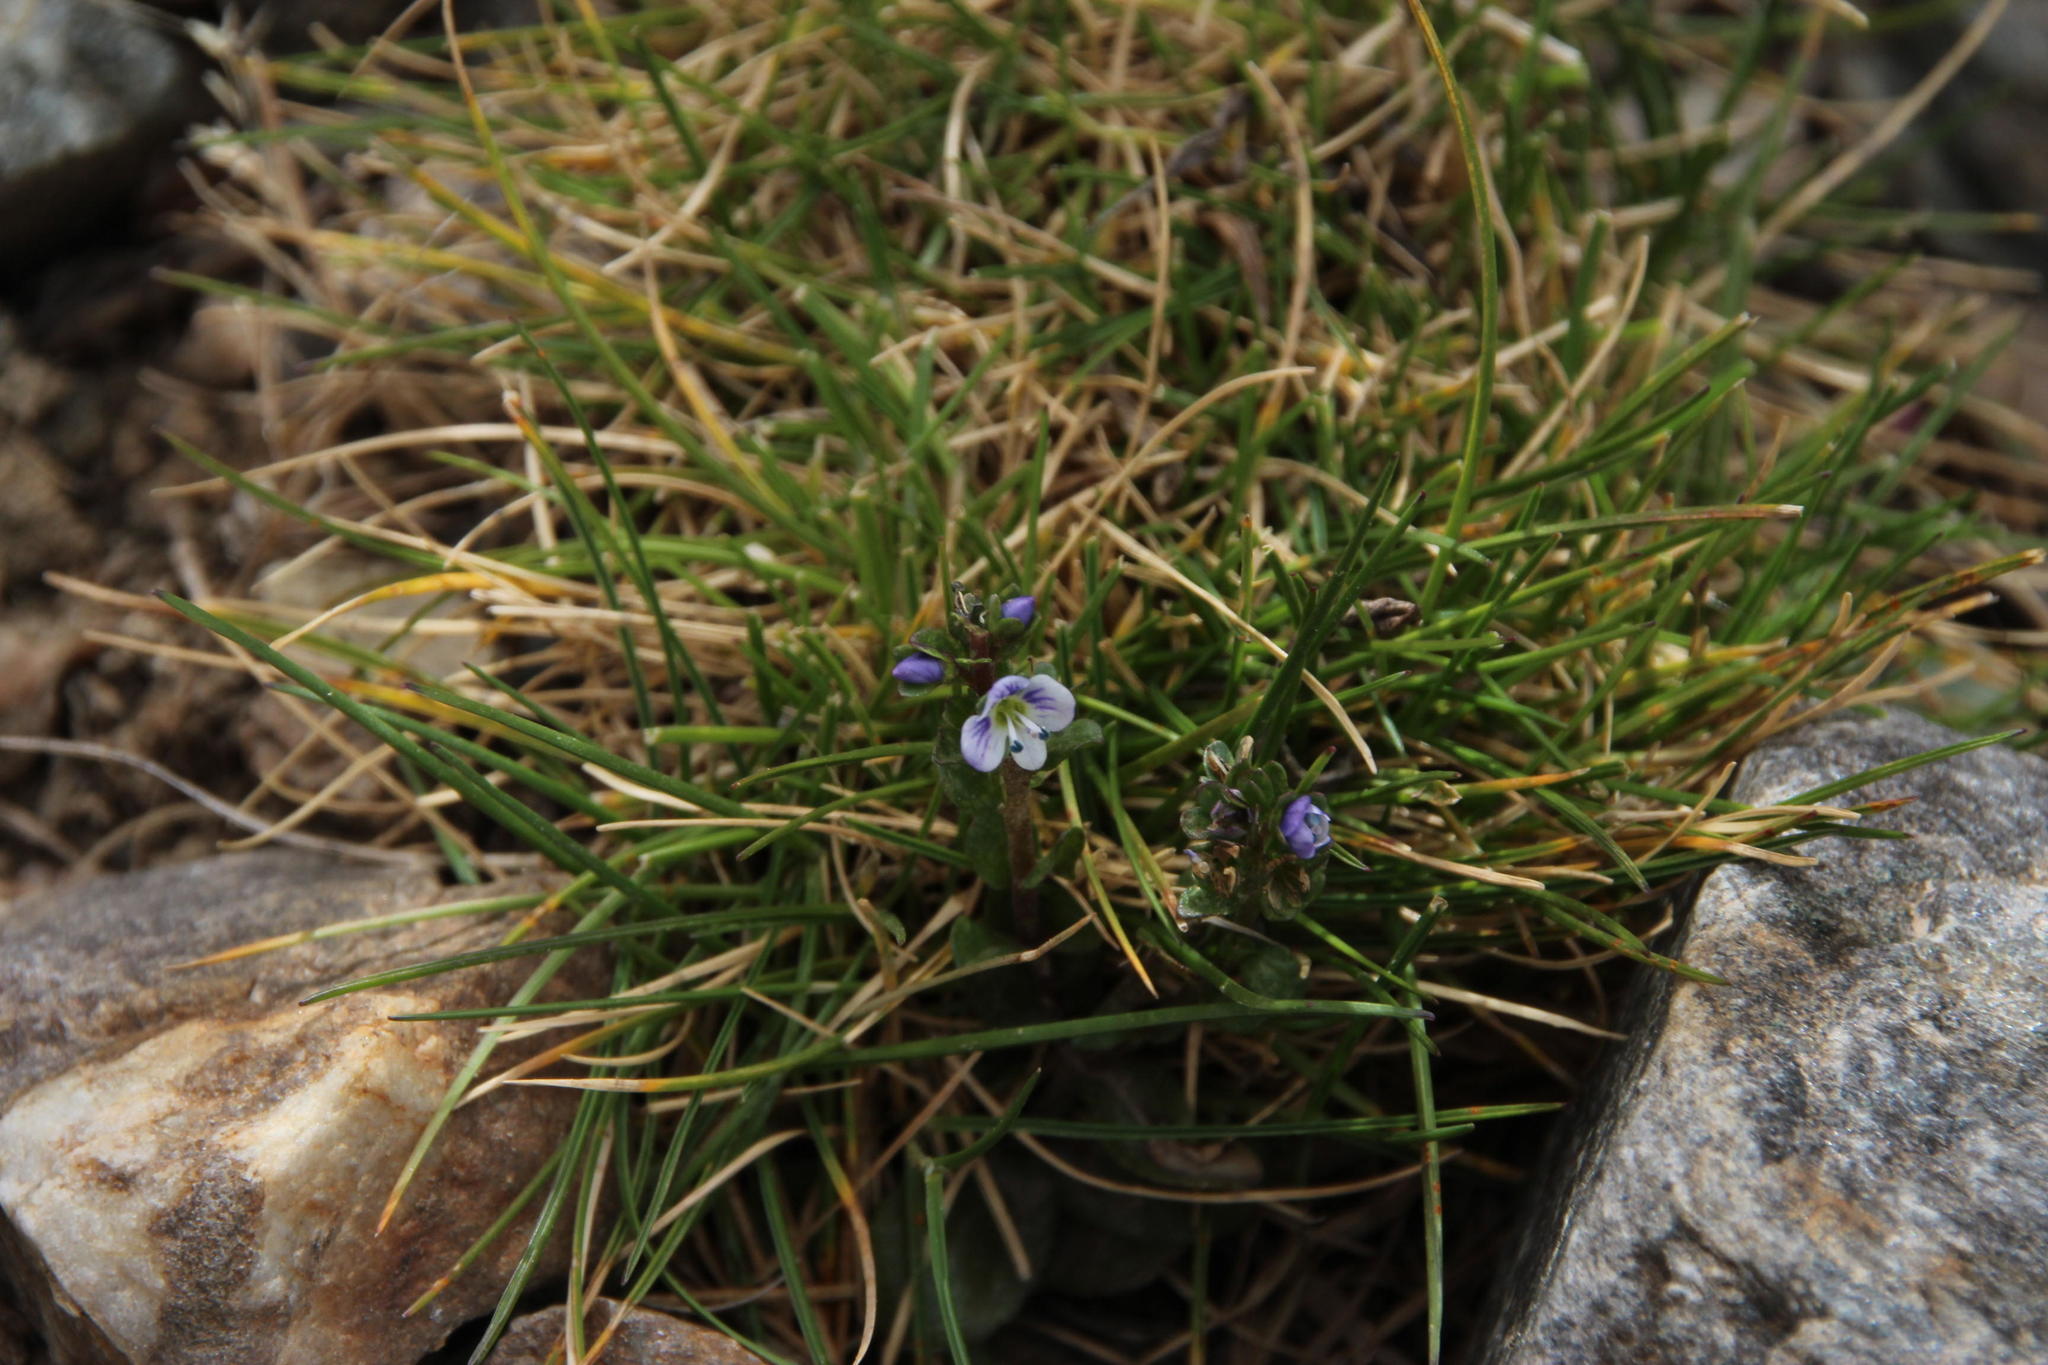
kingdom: Plantae
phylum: Tracheophyta
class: Magnoliopsida
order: Lamiales
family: Plantaginaceae
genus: Veronica
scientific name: Veronica serpyllifolia
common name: Thyme-leaved speedwell
